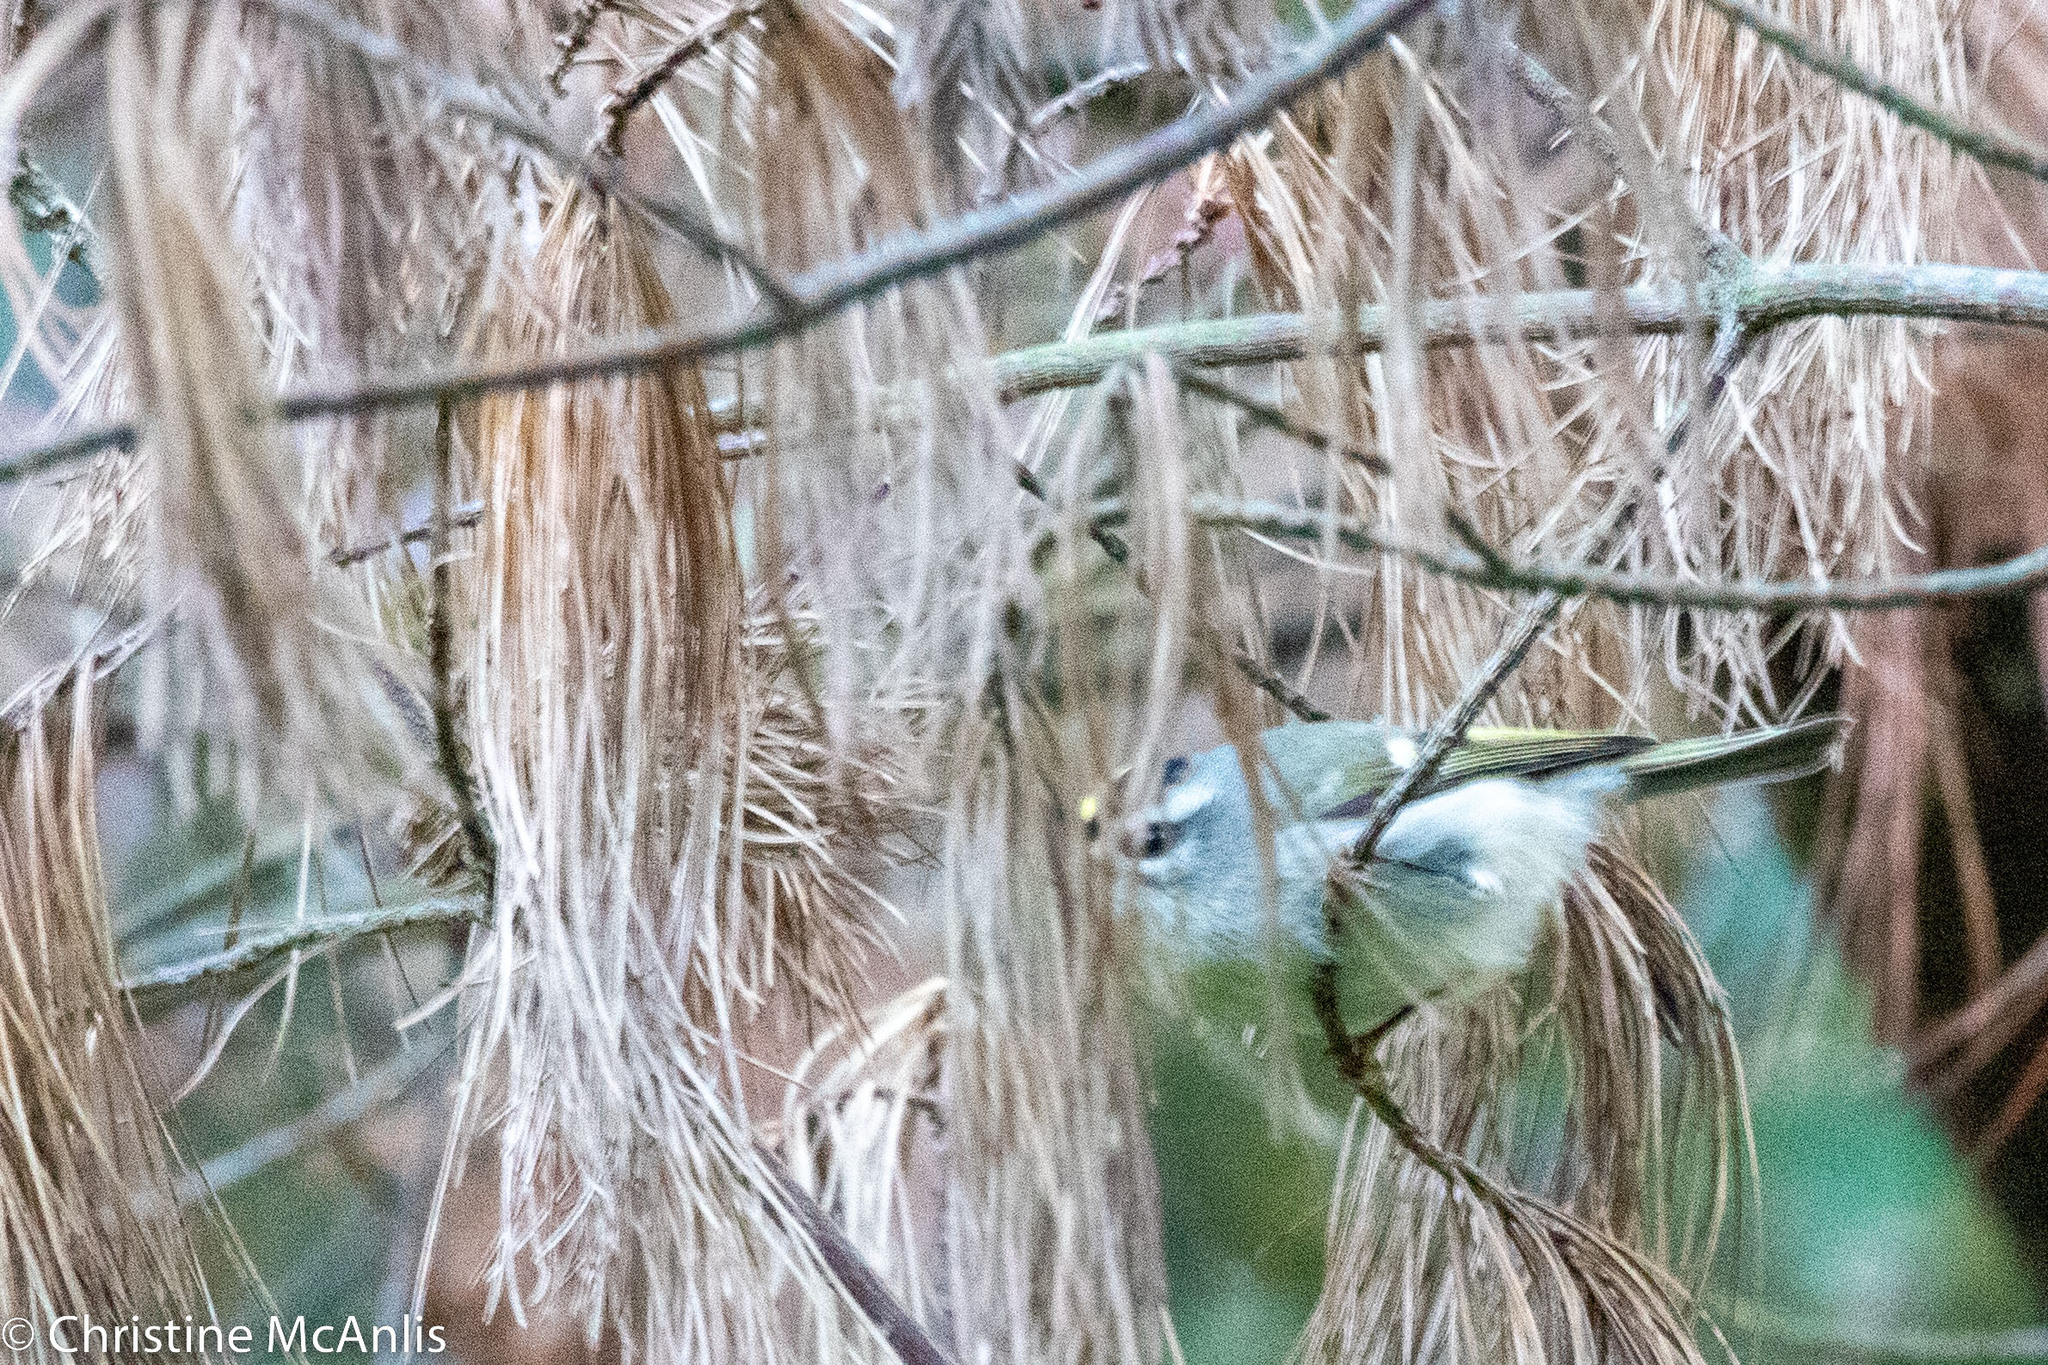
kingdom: Animalia
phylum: Chordata
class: Aves
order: Passeriformes
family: Regulidae
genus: Regulus
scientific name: Regulus satrapa
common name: Golden-crowned kinglet
